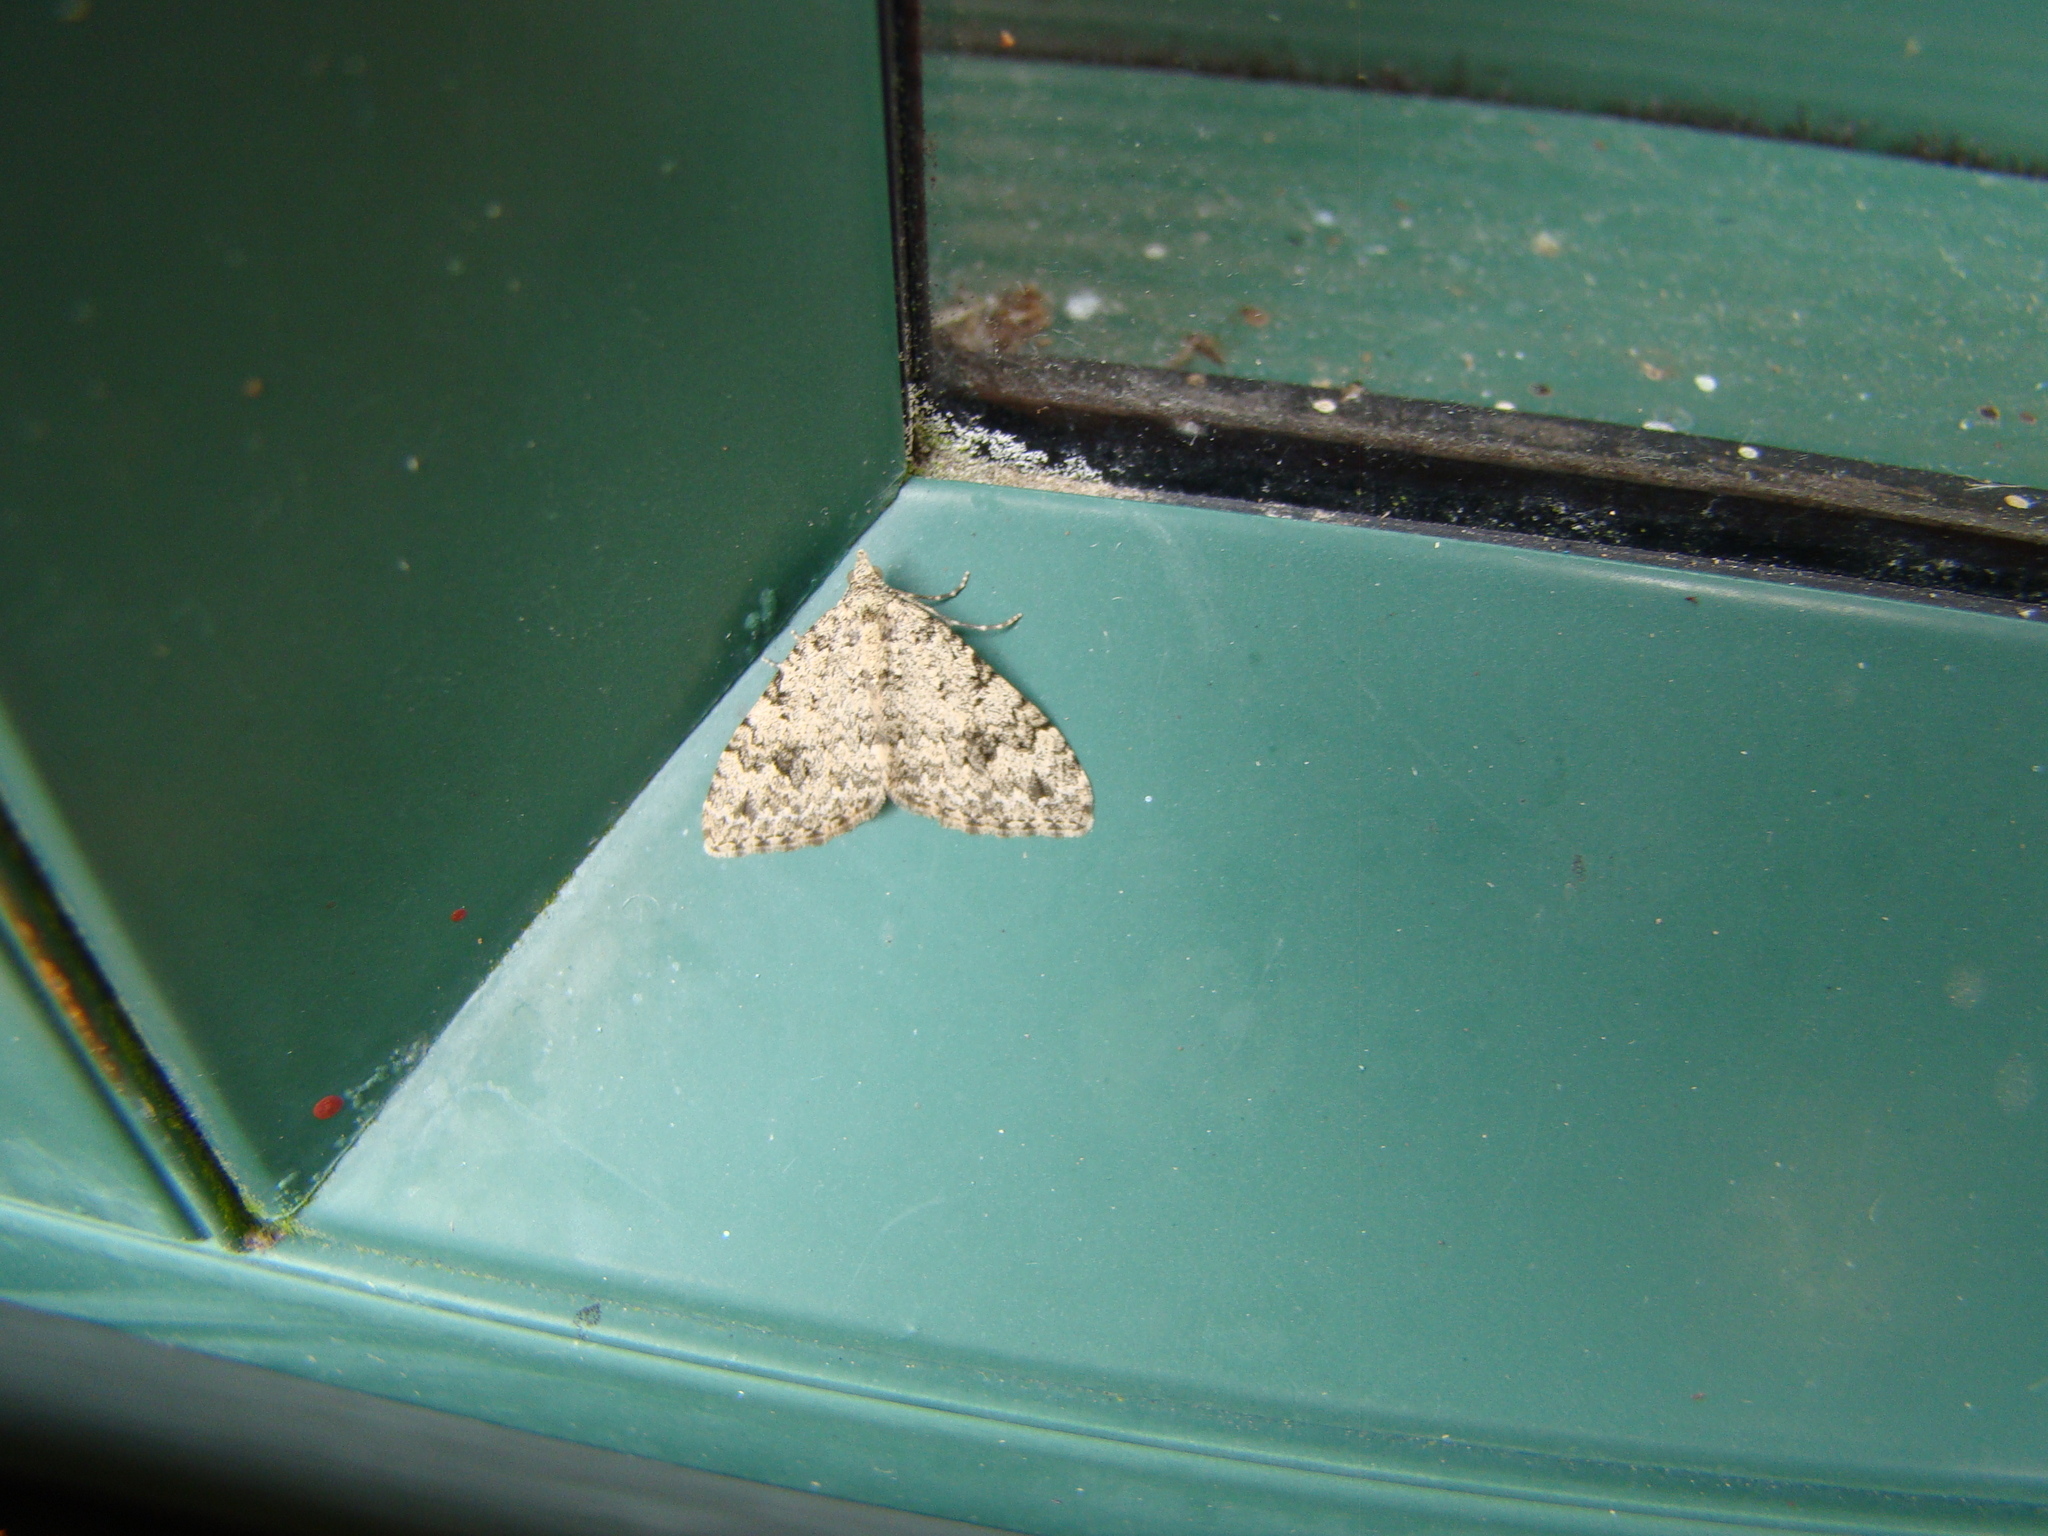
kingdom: Animalia
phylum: Arthropoda
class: Insecta
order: Lepidoptera
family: Geometridae
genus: Helastia
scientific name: Helastia cinerearia
